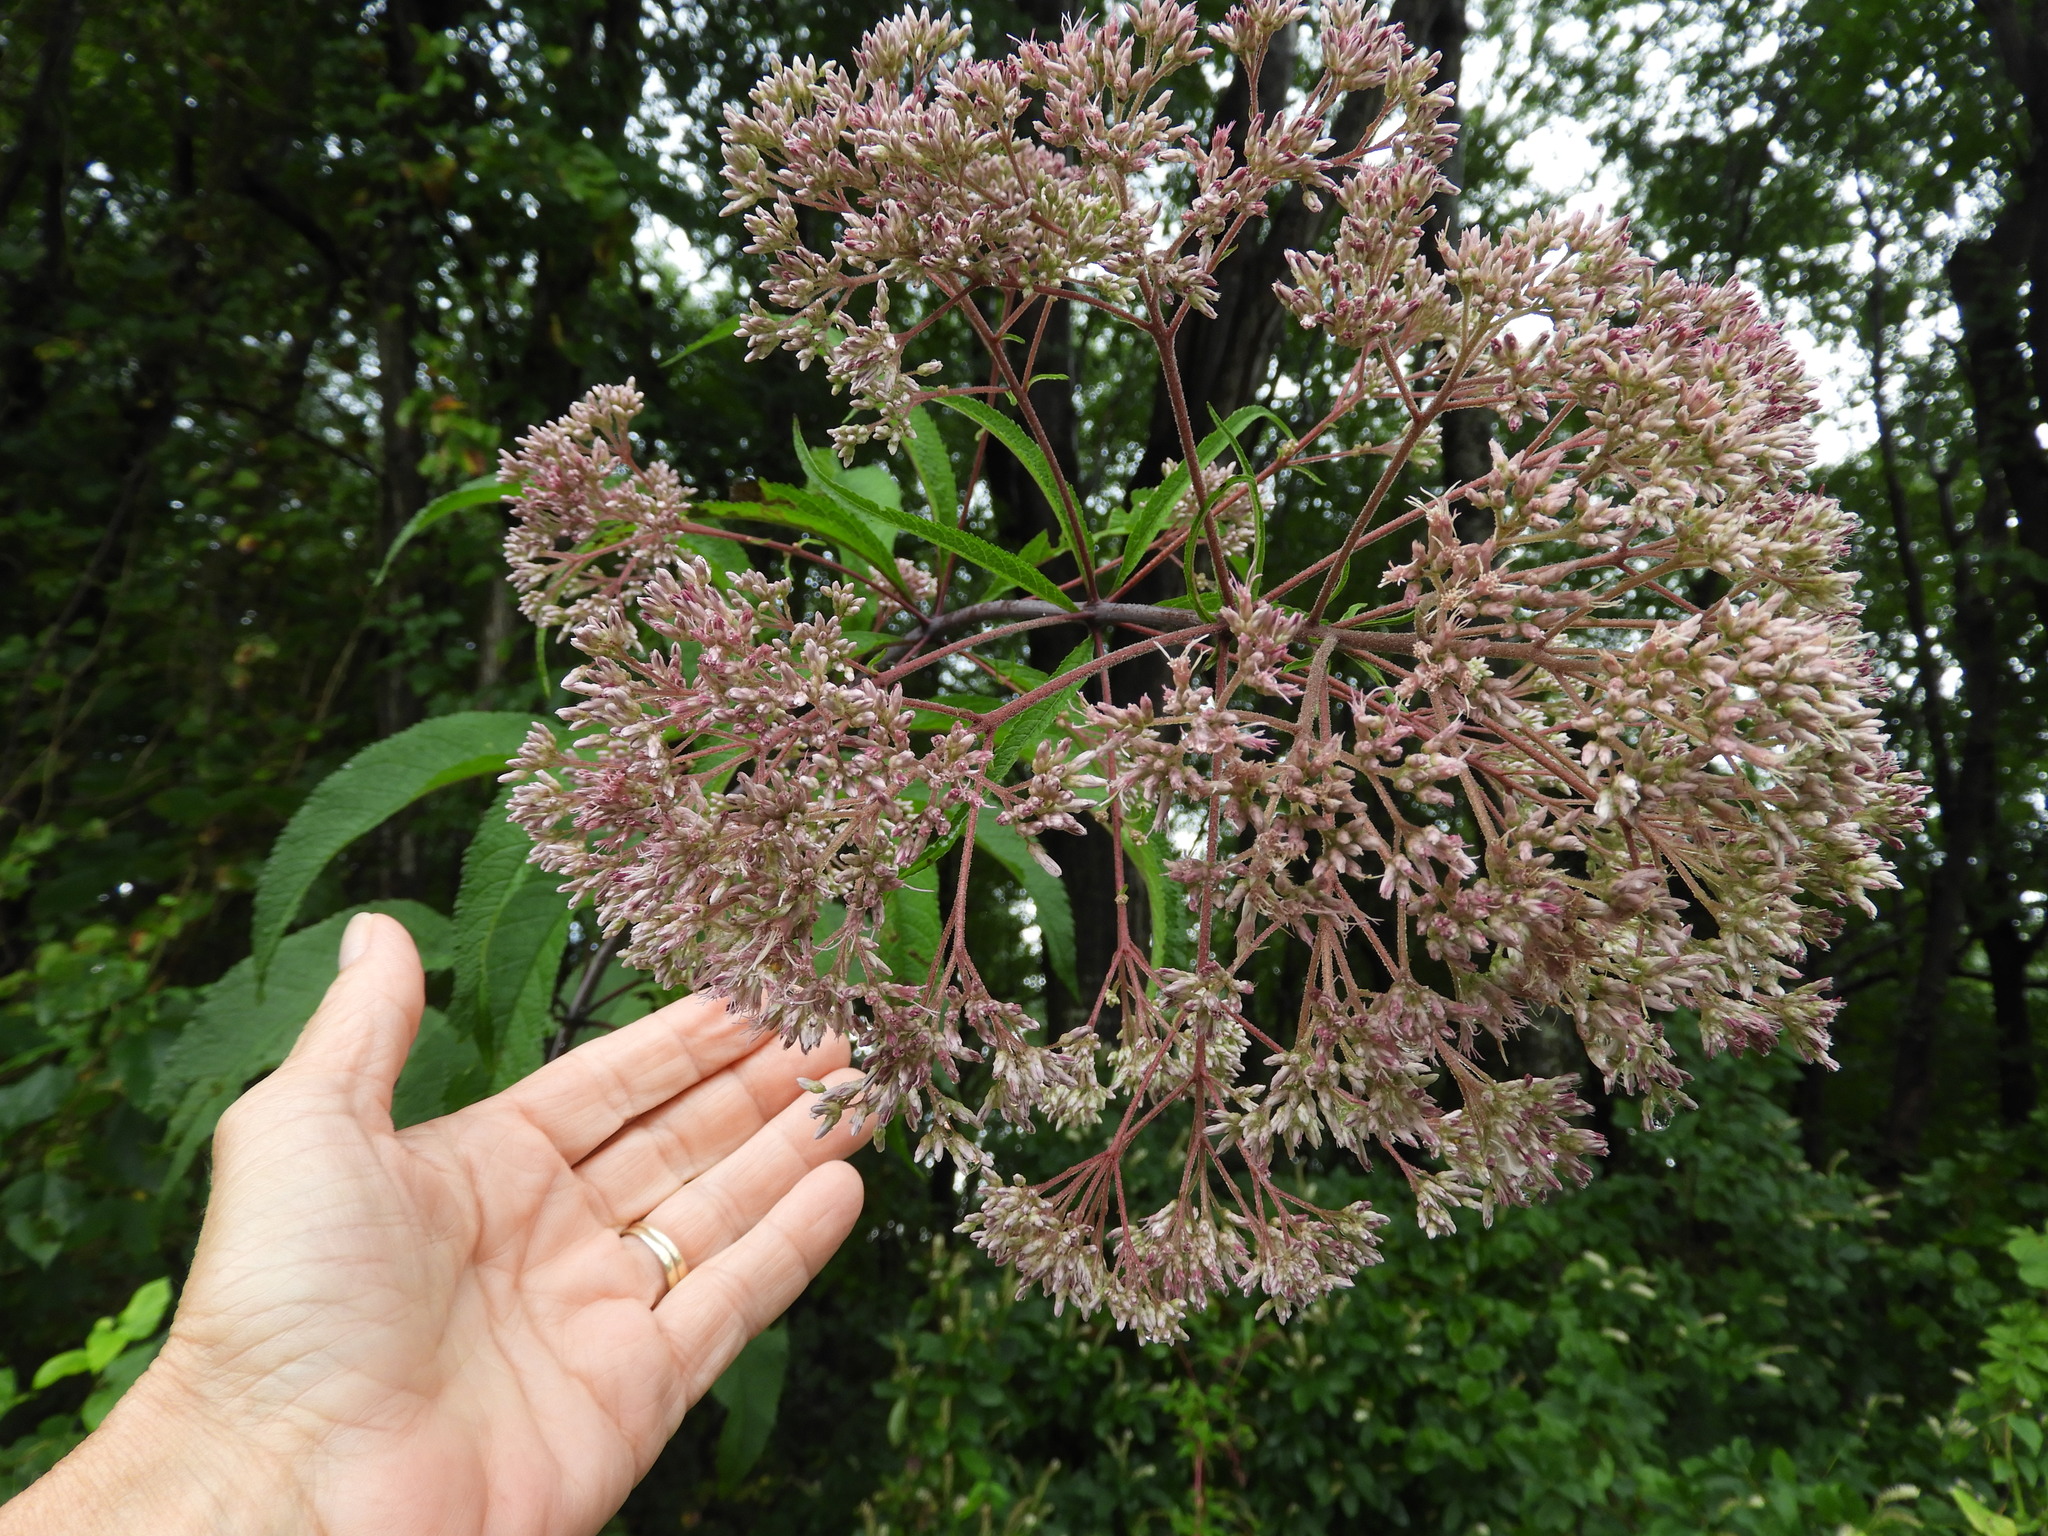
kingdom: Plantae
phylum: Tracheophyta
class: Magnoliopsida
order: Asterales
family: Asteraceae
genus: Eutrochium
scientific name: Eutrochium fistulosum
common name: Trumpetweed
